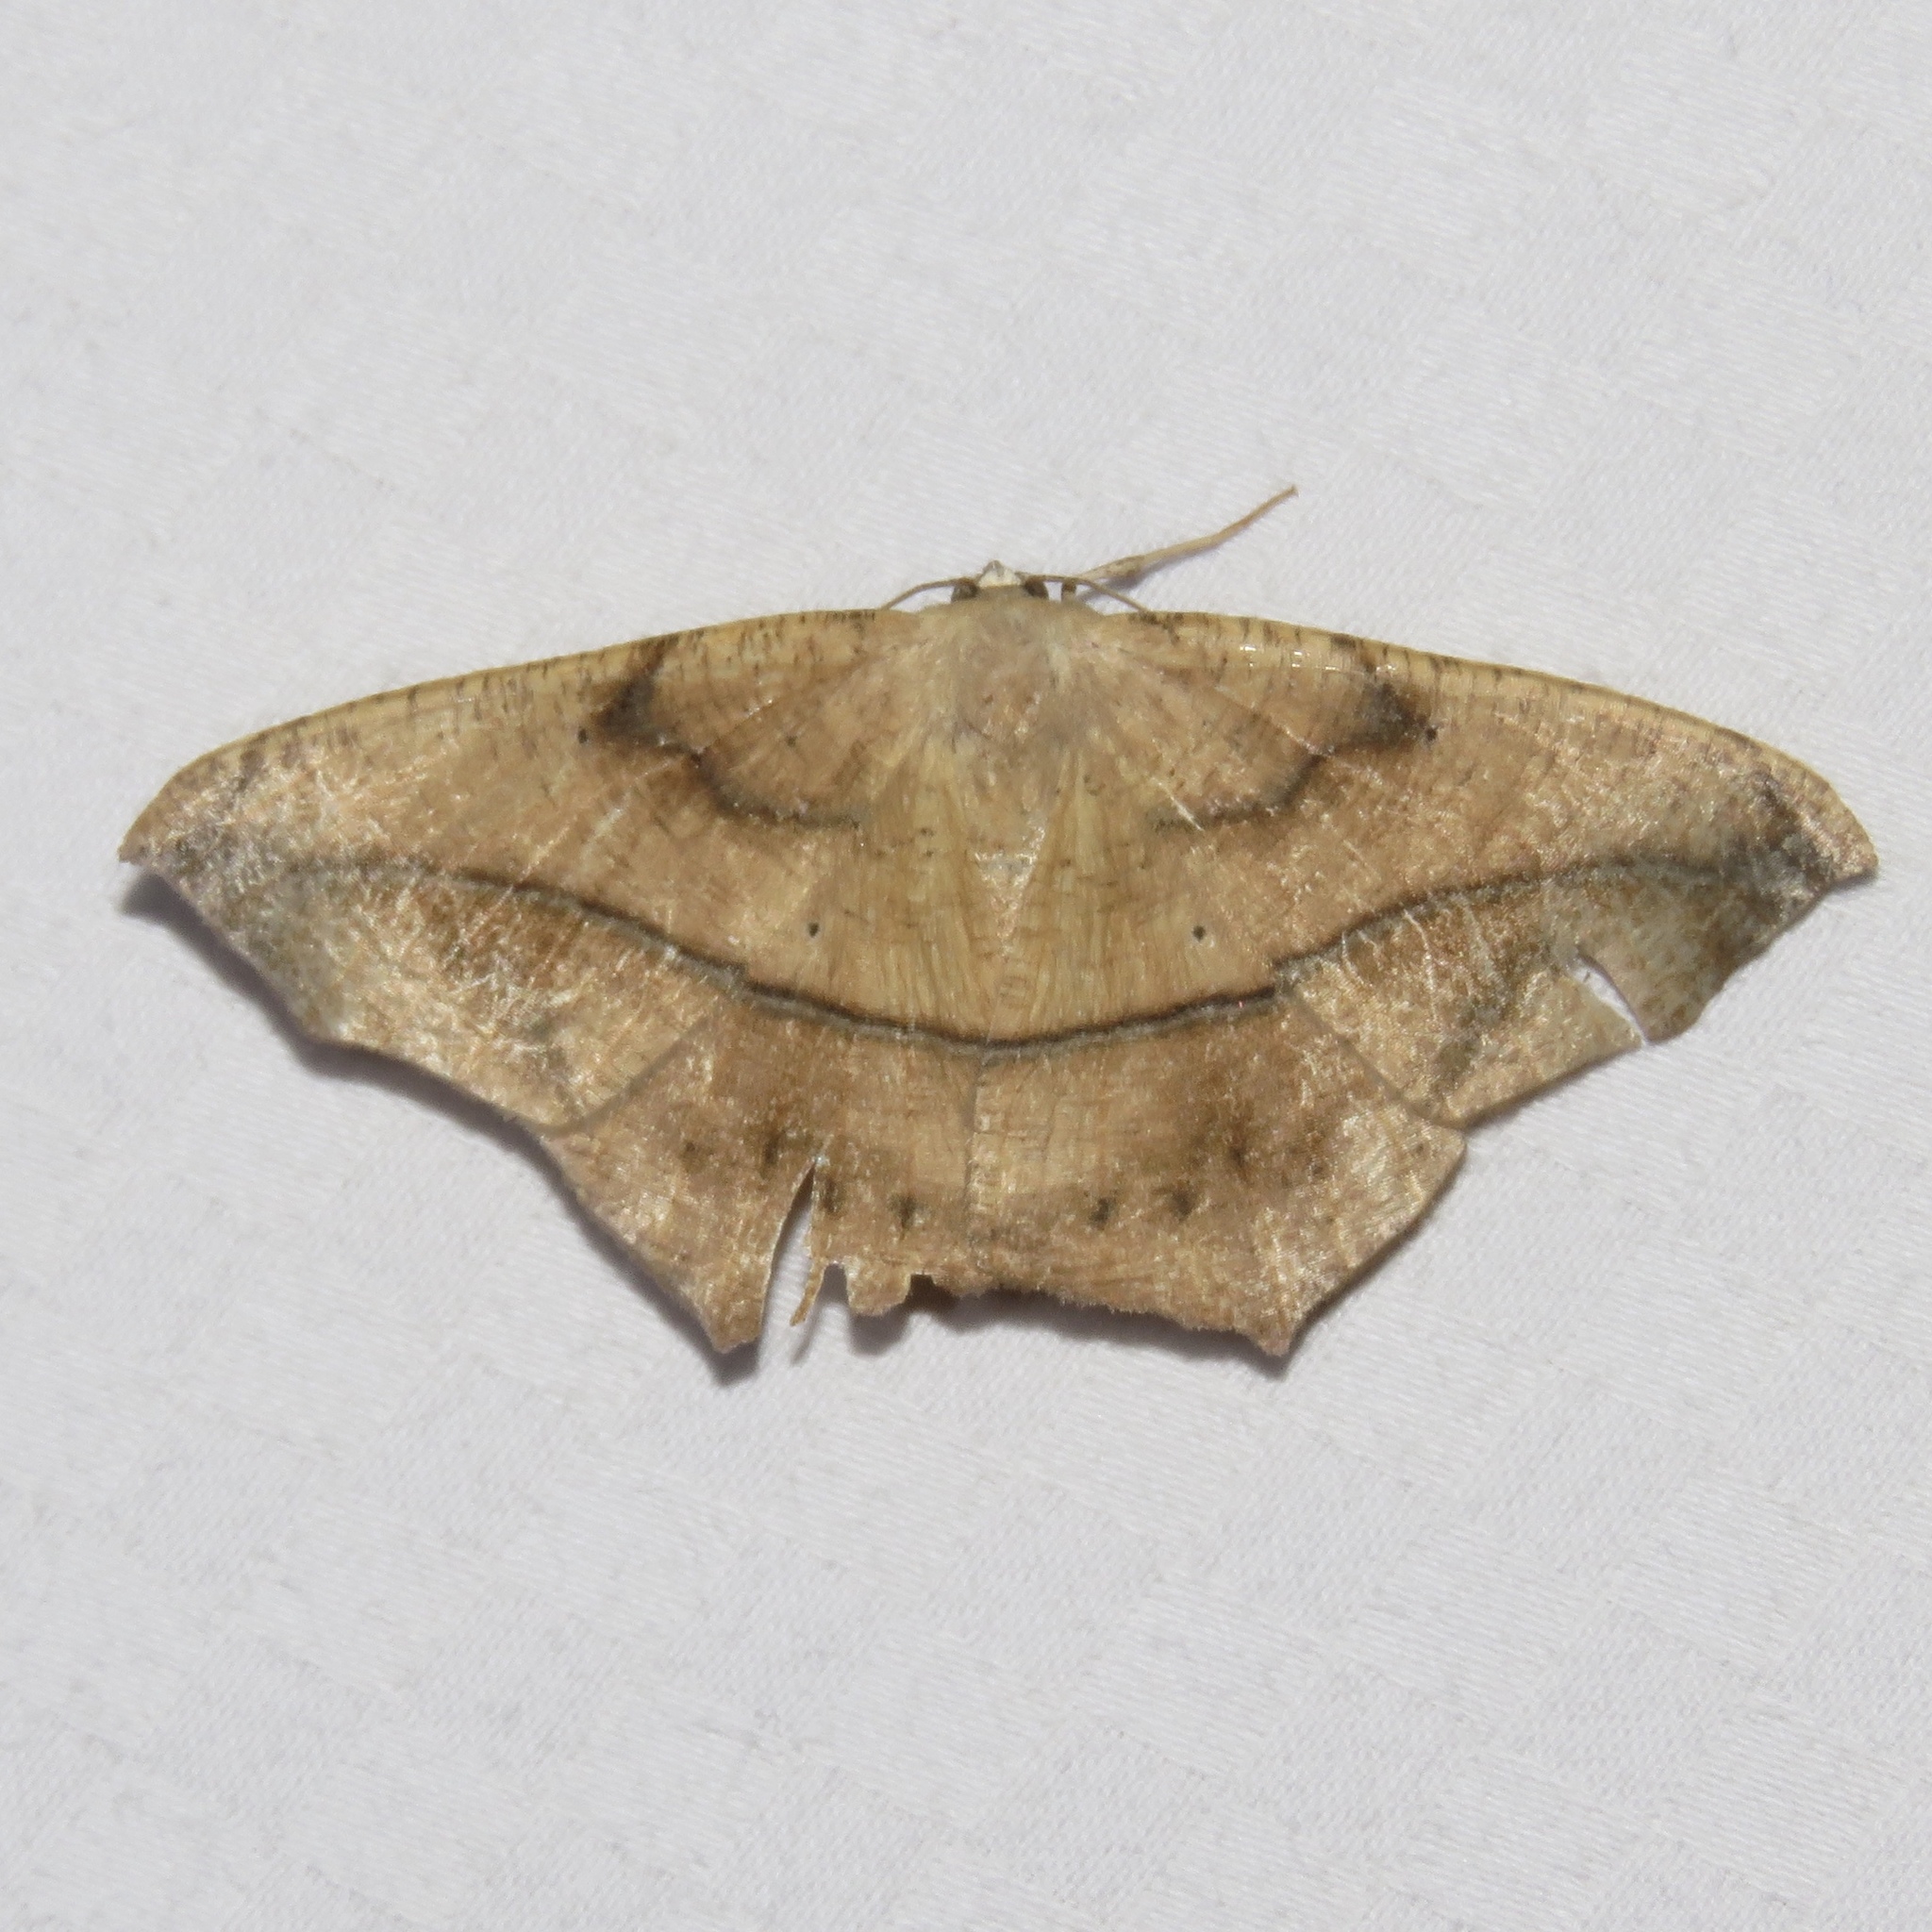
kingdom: Animalia
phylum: Arthropoda
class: Insecta
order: Lepidoptera
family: Geometridae
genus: Prochoerodes
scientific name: Prochoerodes lineola
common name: Large maple spanworm
